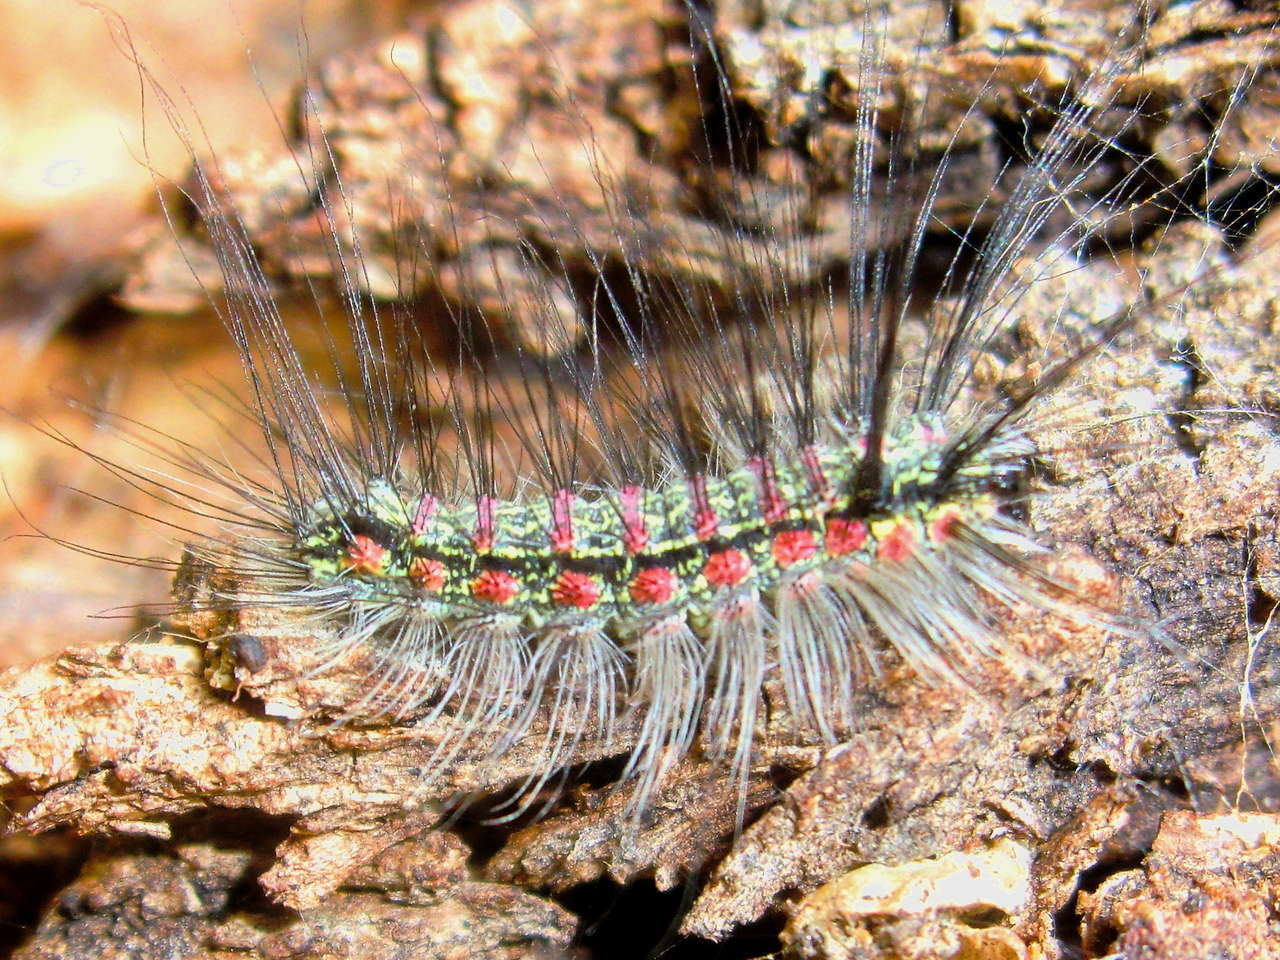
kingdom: Animalia
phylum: Arthropoda
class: Insecta
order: Lepidoptera
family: Erebidae
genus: Anestia
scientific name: Anestia
